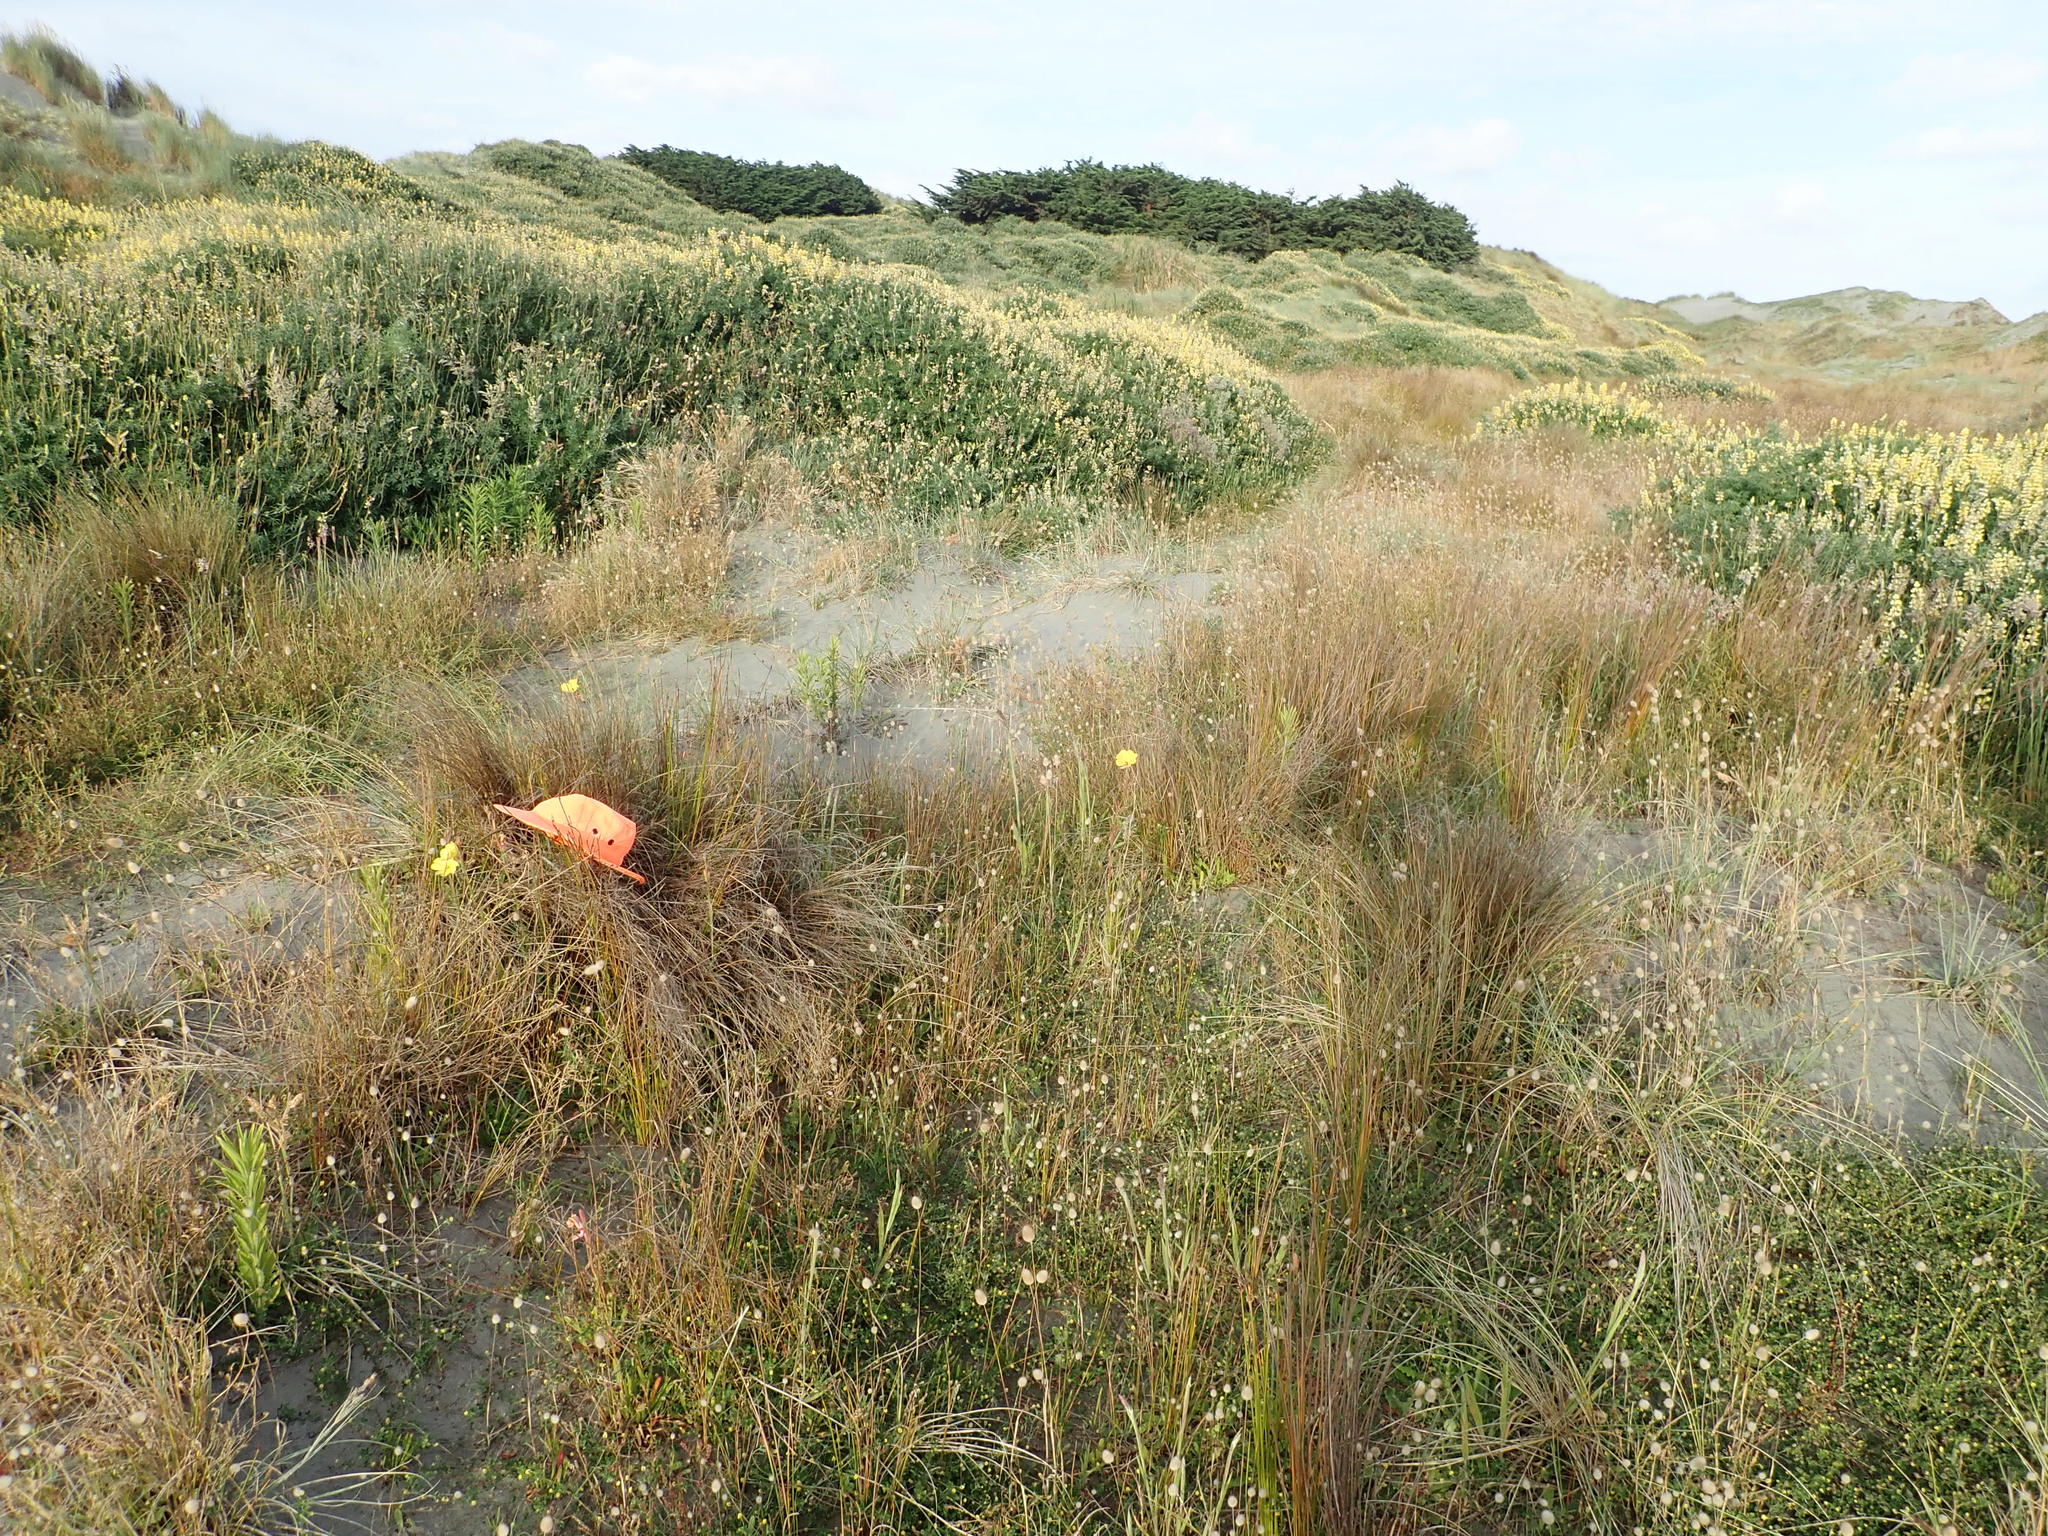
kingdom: Plantae
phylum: Tracheophyta
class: Magnoliopsida
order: Myrtales
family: Onagraceae
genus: Oenothera
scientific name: Oenothera stricta
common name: Fragrant evening-primrose
